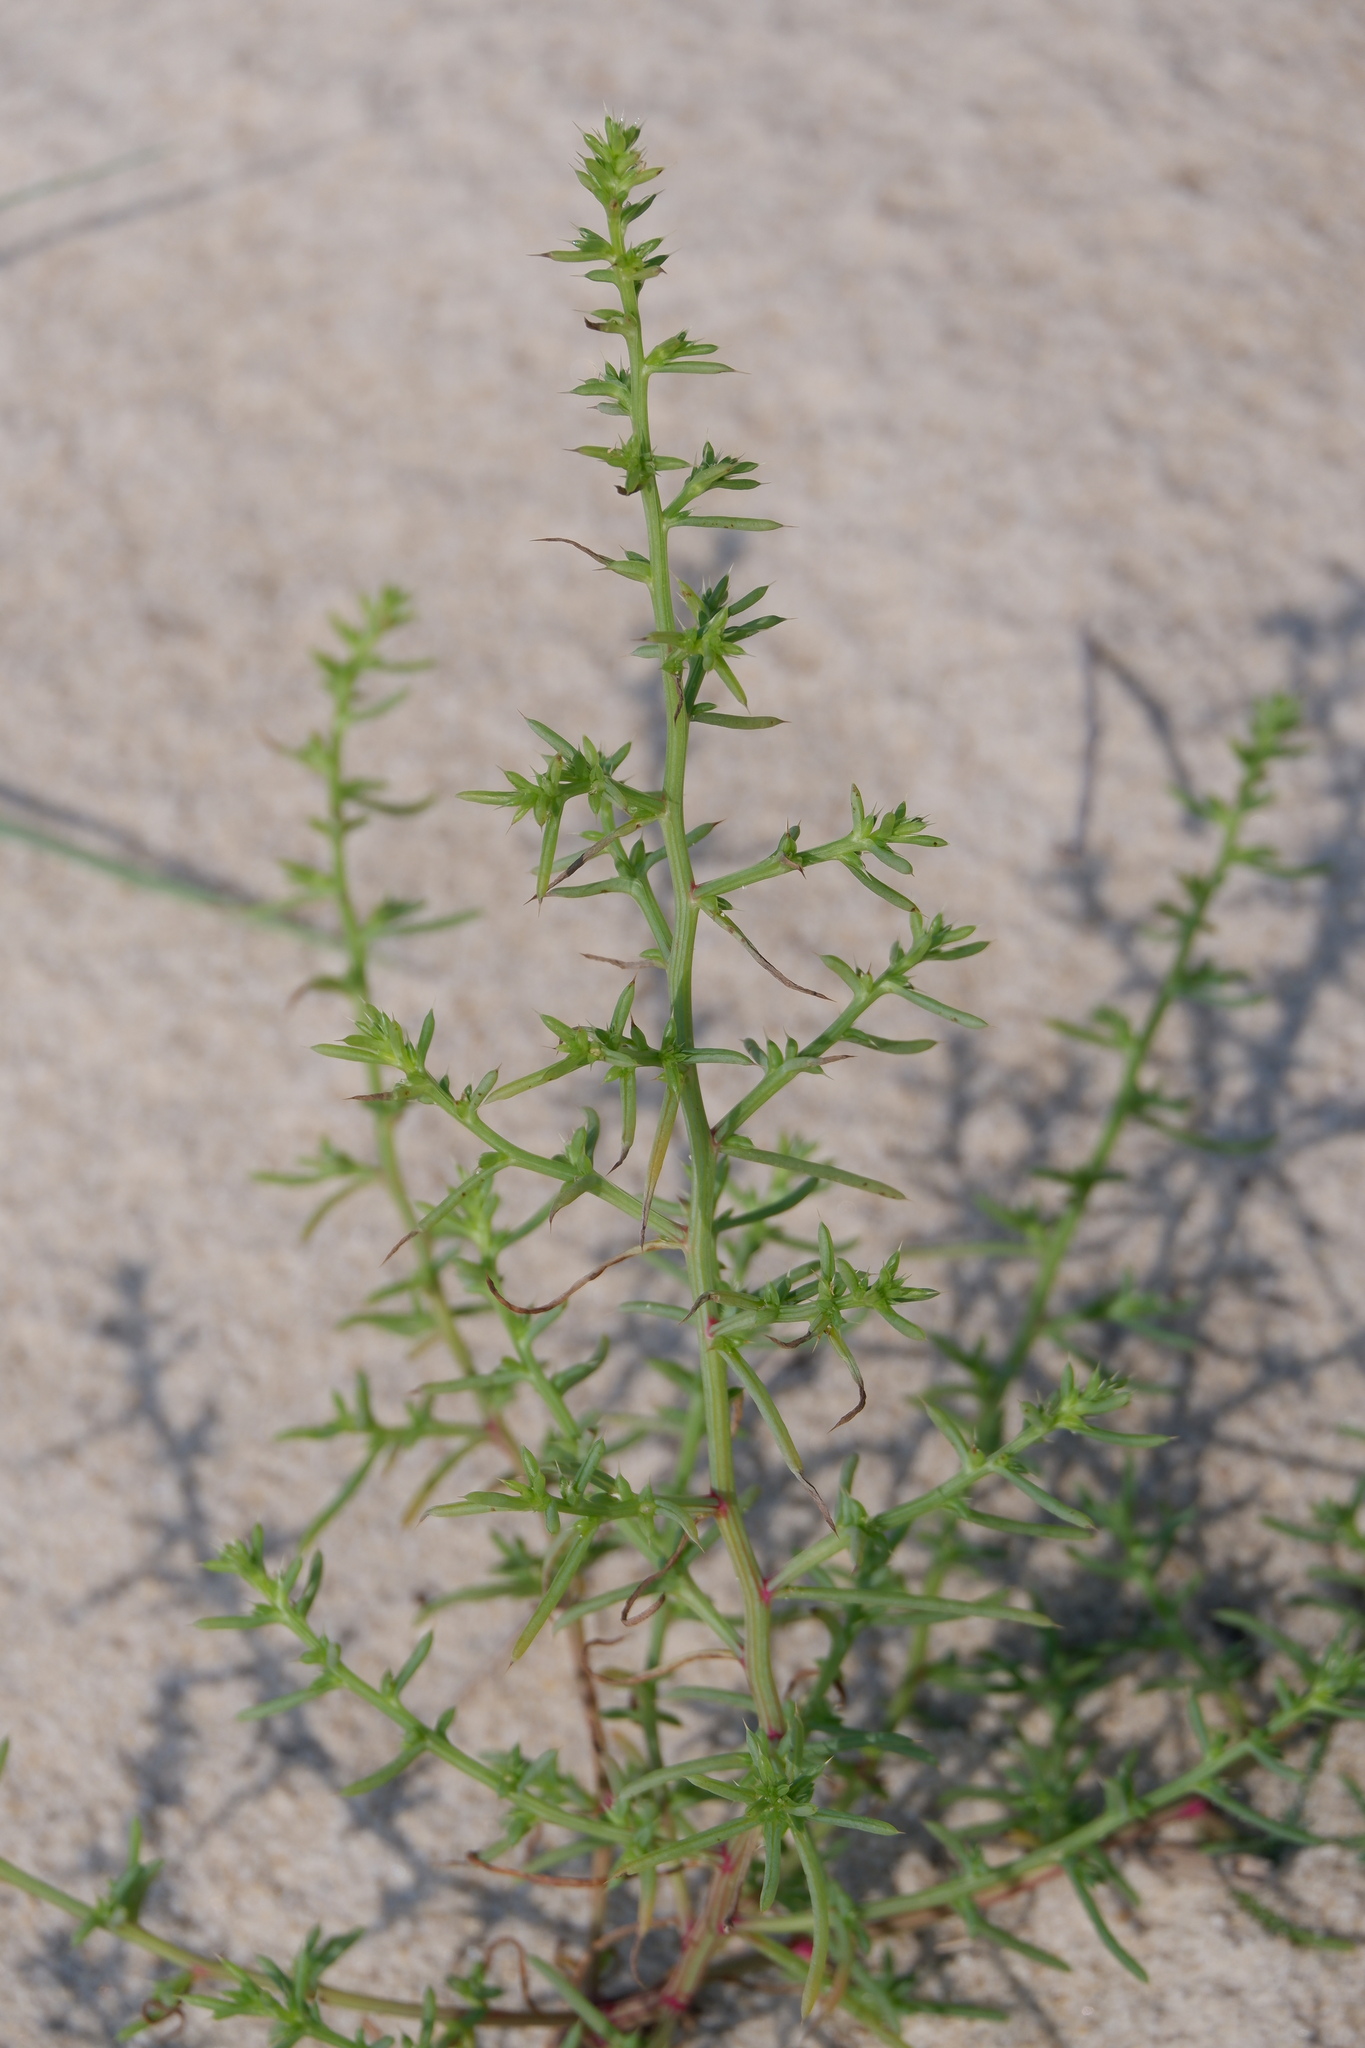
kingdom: Plantae
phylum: Tracheophyta
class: Magnoliopsida
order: Caryophyllales
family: Amaranthaceae
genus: Salsola
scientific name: Salsola kali
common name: Saltwort
